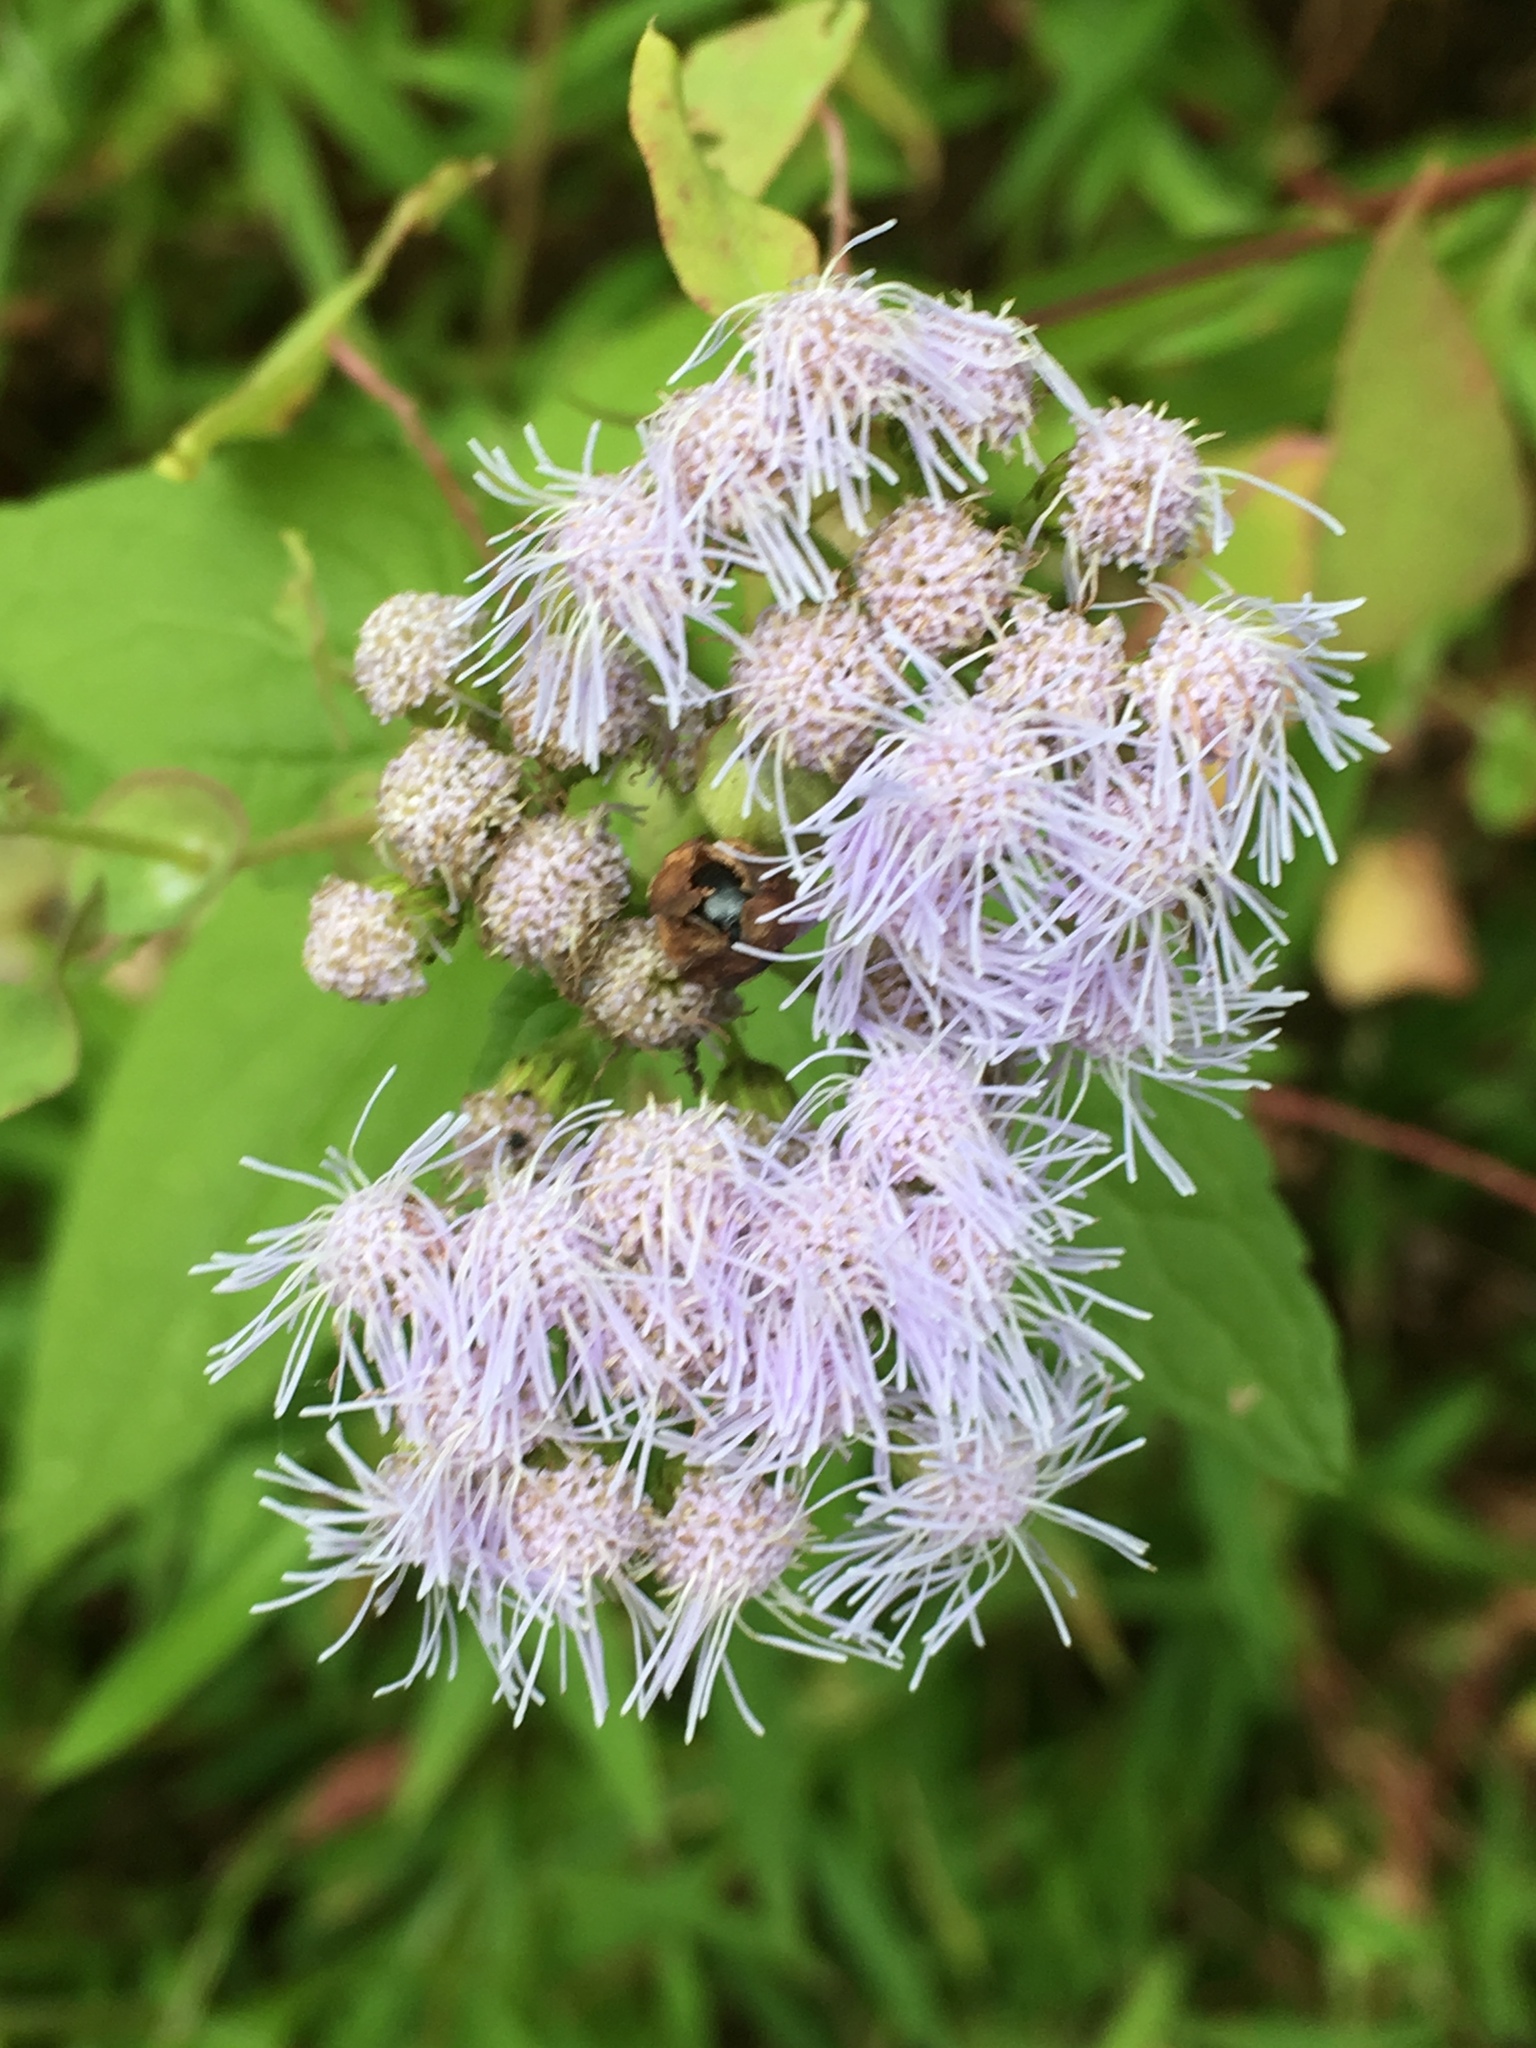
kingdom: Plantae
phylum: Tracheophyta
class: Magnoliopsida
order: Asterales
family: Asteraceae
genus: Conoclinium
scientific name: Conoclinium coelestinum
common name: Blue mistflower
